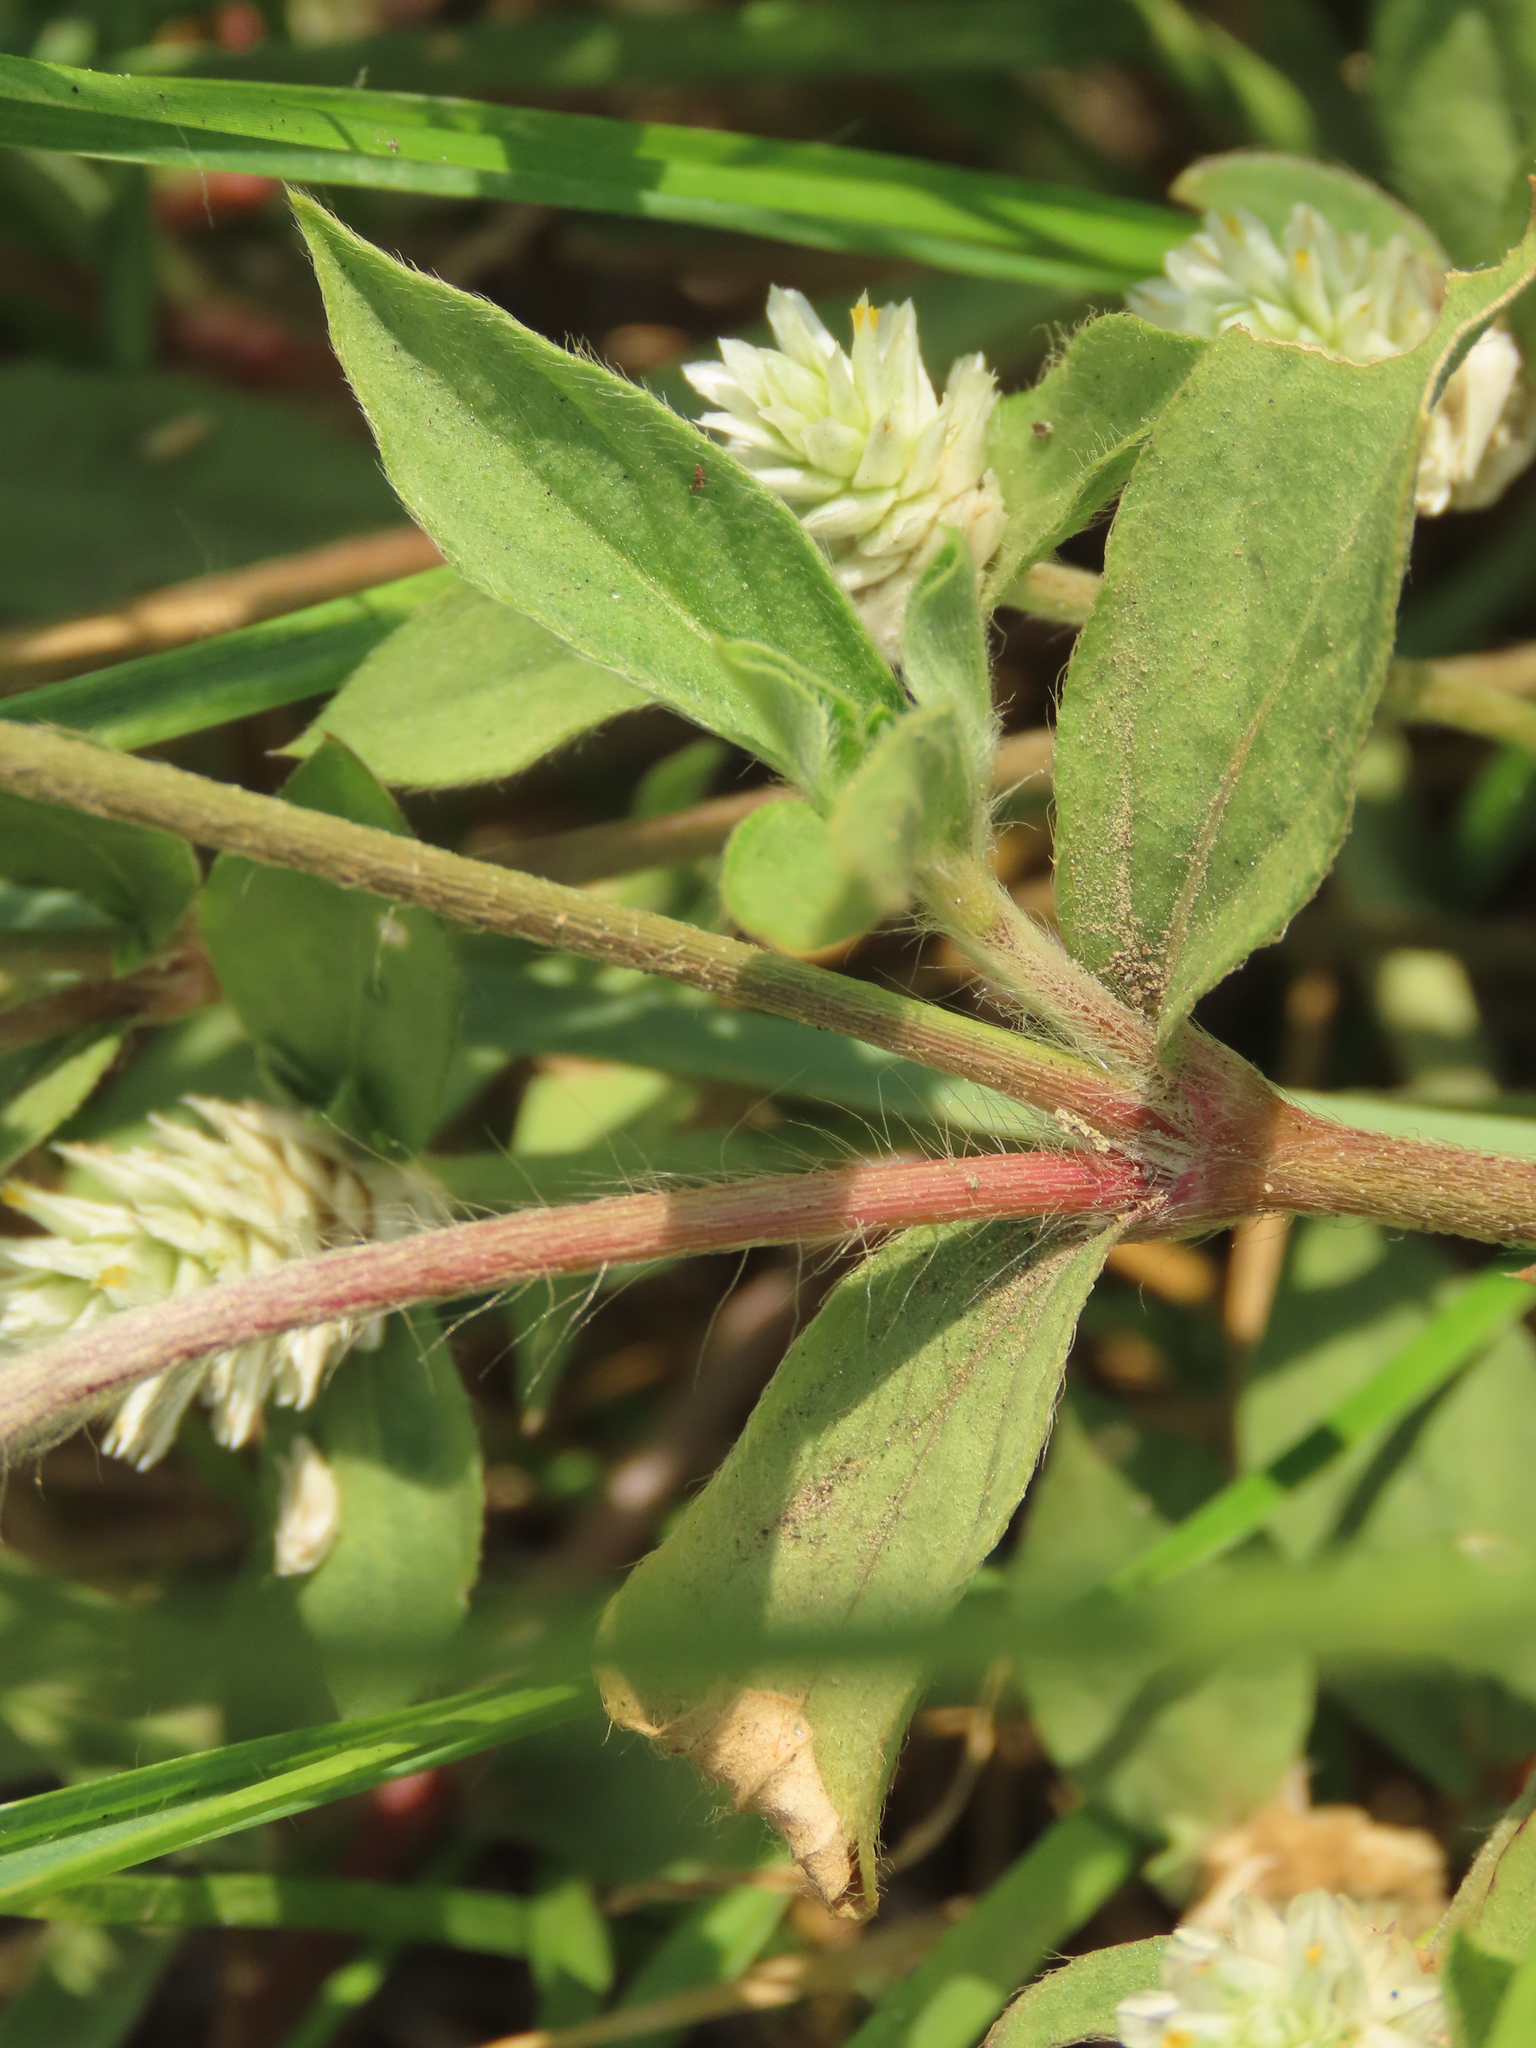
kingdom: Plantae
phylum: Tracheophyta
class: Magnoliopsida
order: Caryophyllales
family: Amaranthaceae
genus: Gomphrena
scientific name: Gomphrena serrata
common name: Arrasa con todo
